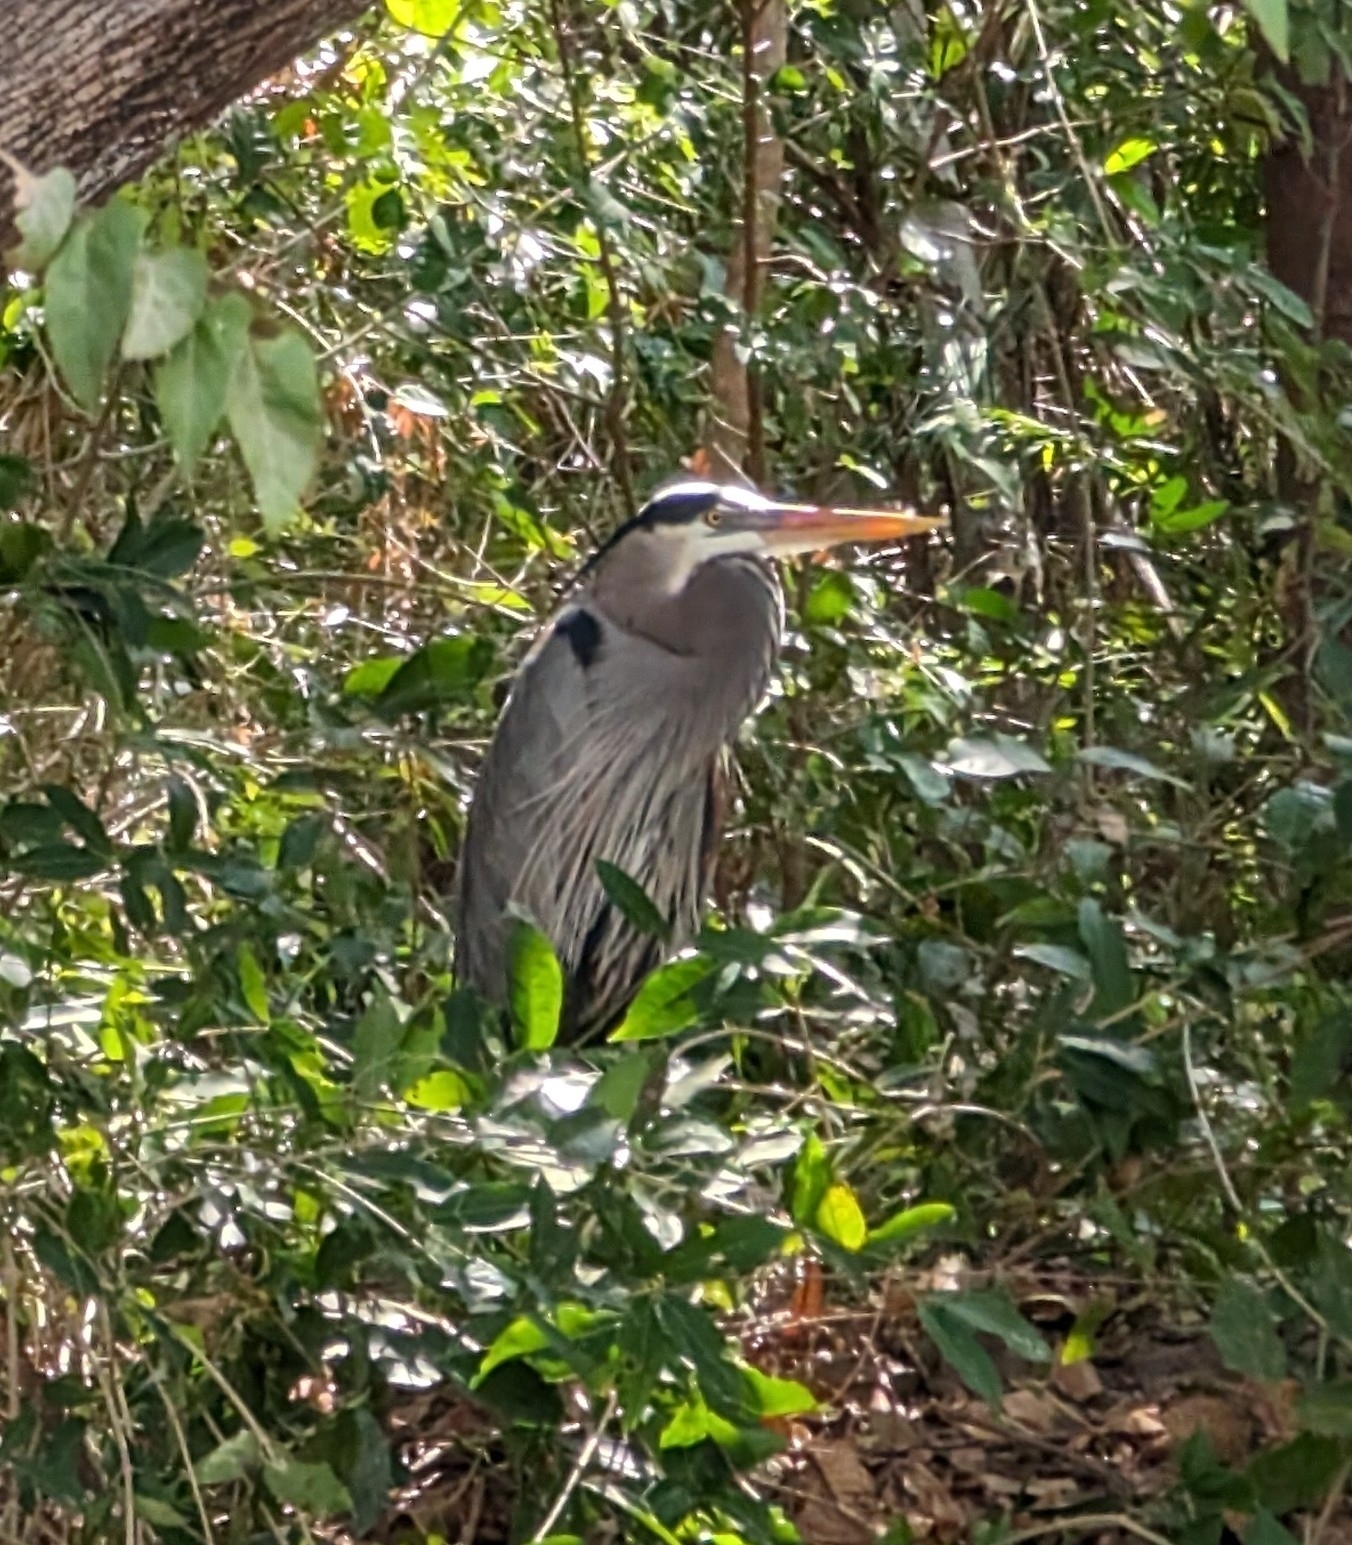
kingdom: Animalia
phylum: Chordata
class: Aves
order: Pelecaniformes
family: Ardeidae
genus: Ardea
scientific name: Ardea herodias
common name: Great blue heron
